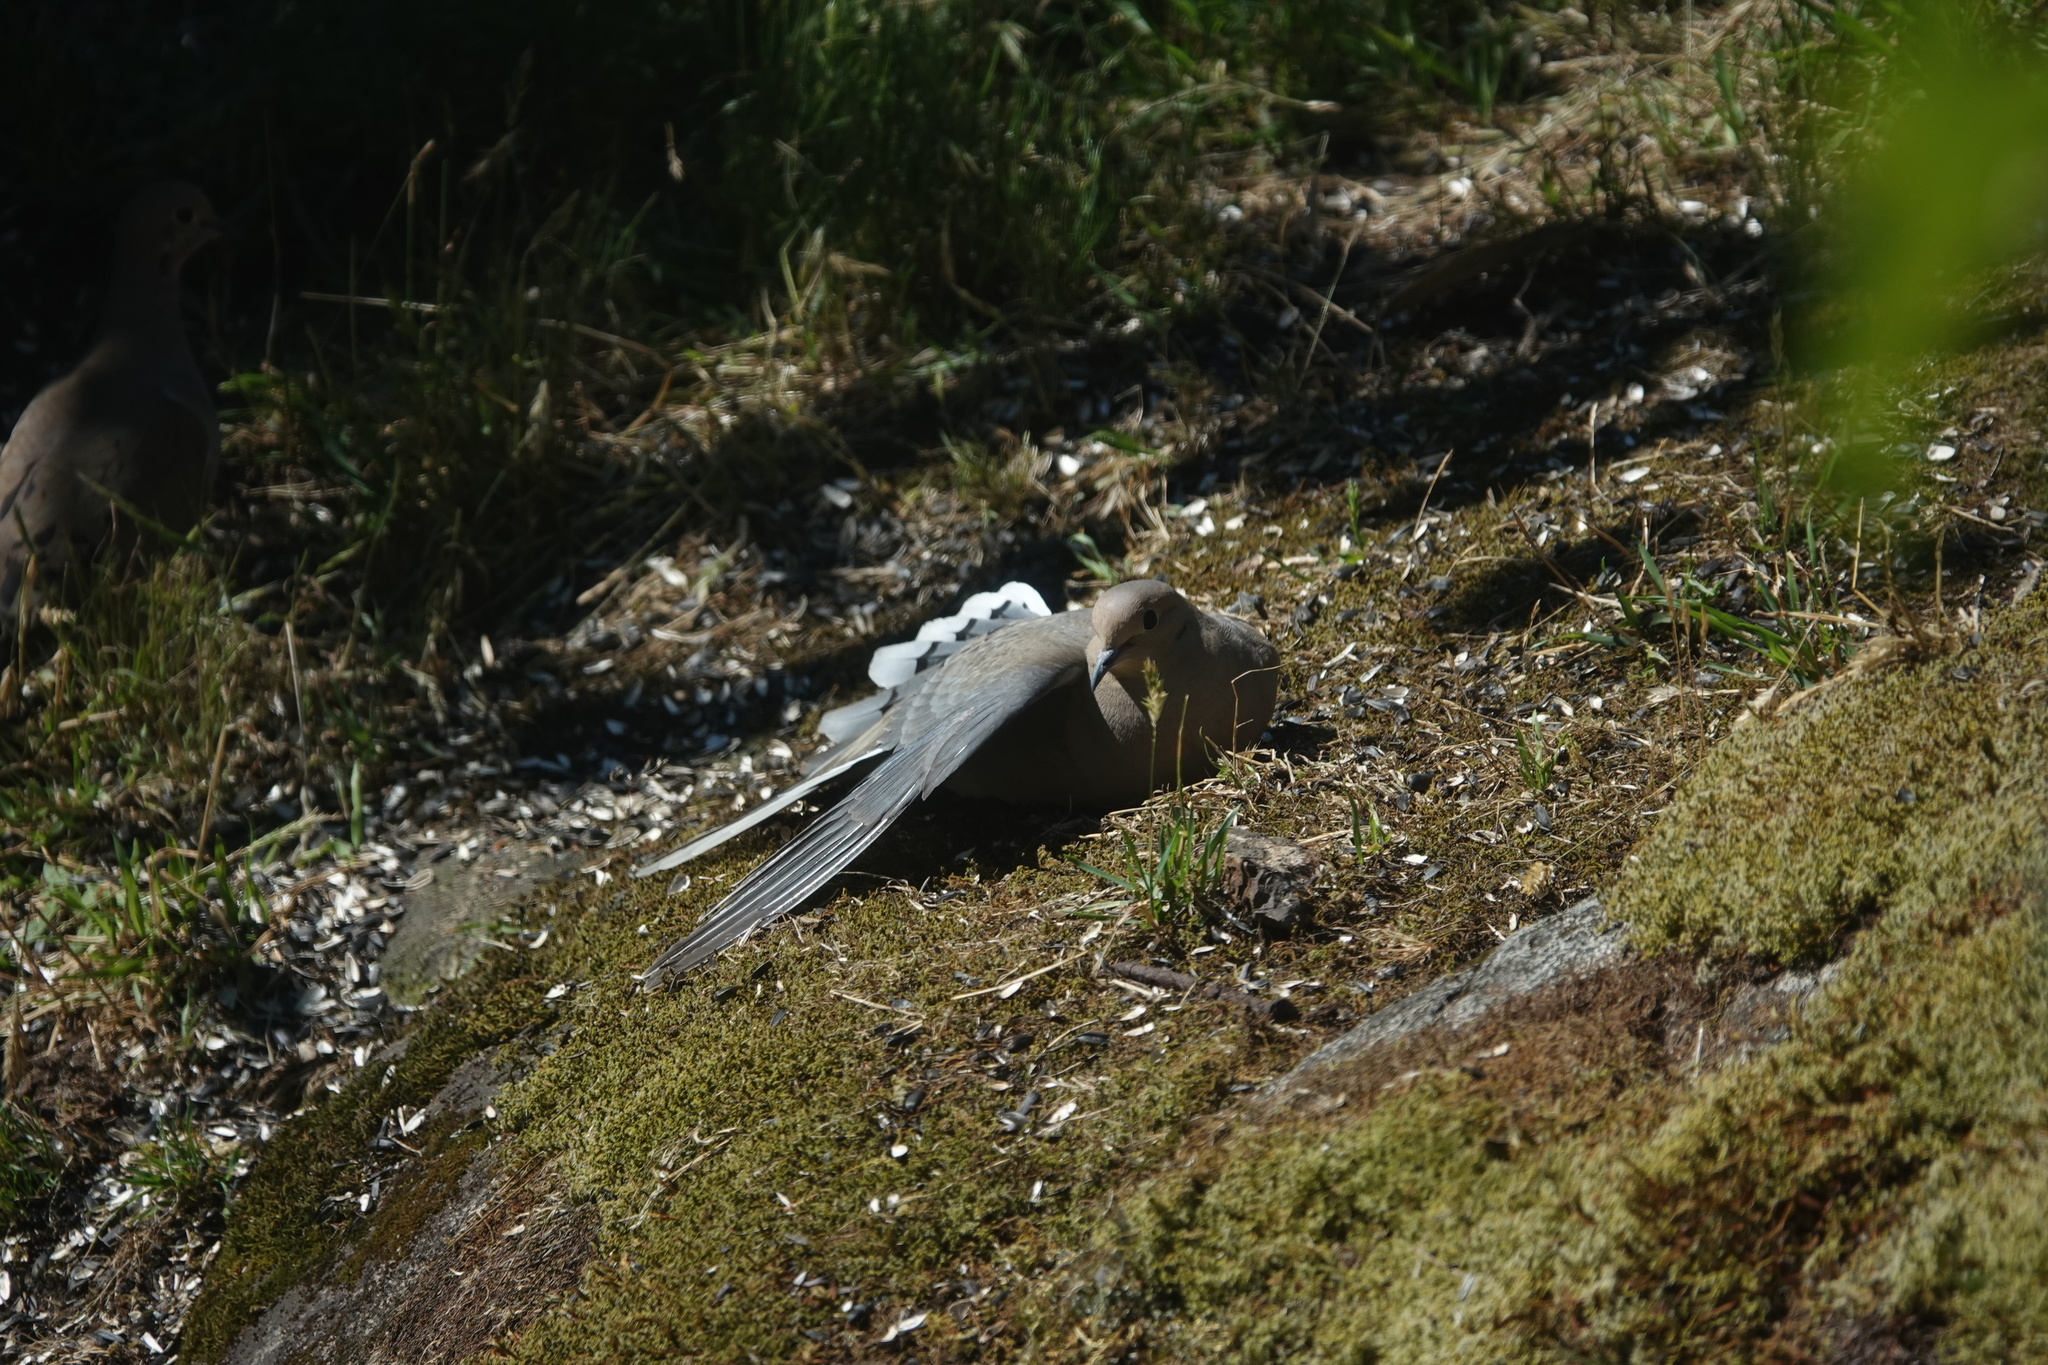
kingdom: Animalia
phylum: Chordata
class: Aves
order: Columbiformes
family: Columbidae
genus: Zenaida
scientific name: Zenaida macroura
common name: Mourning dove
